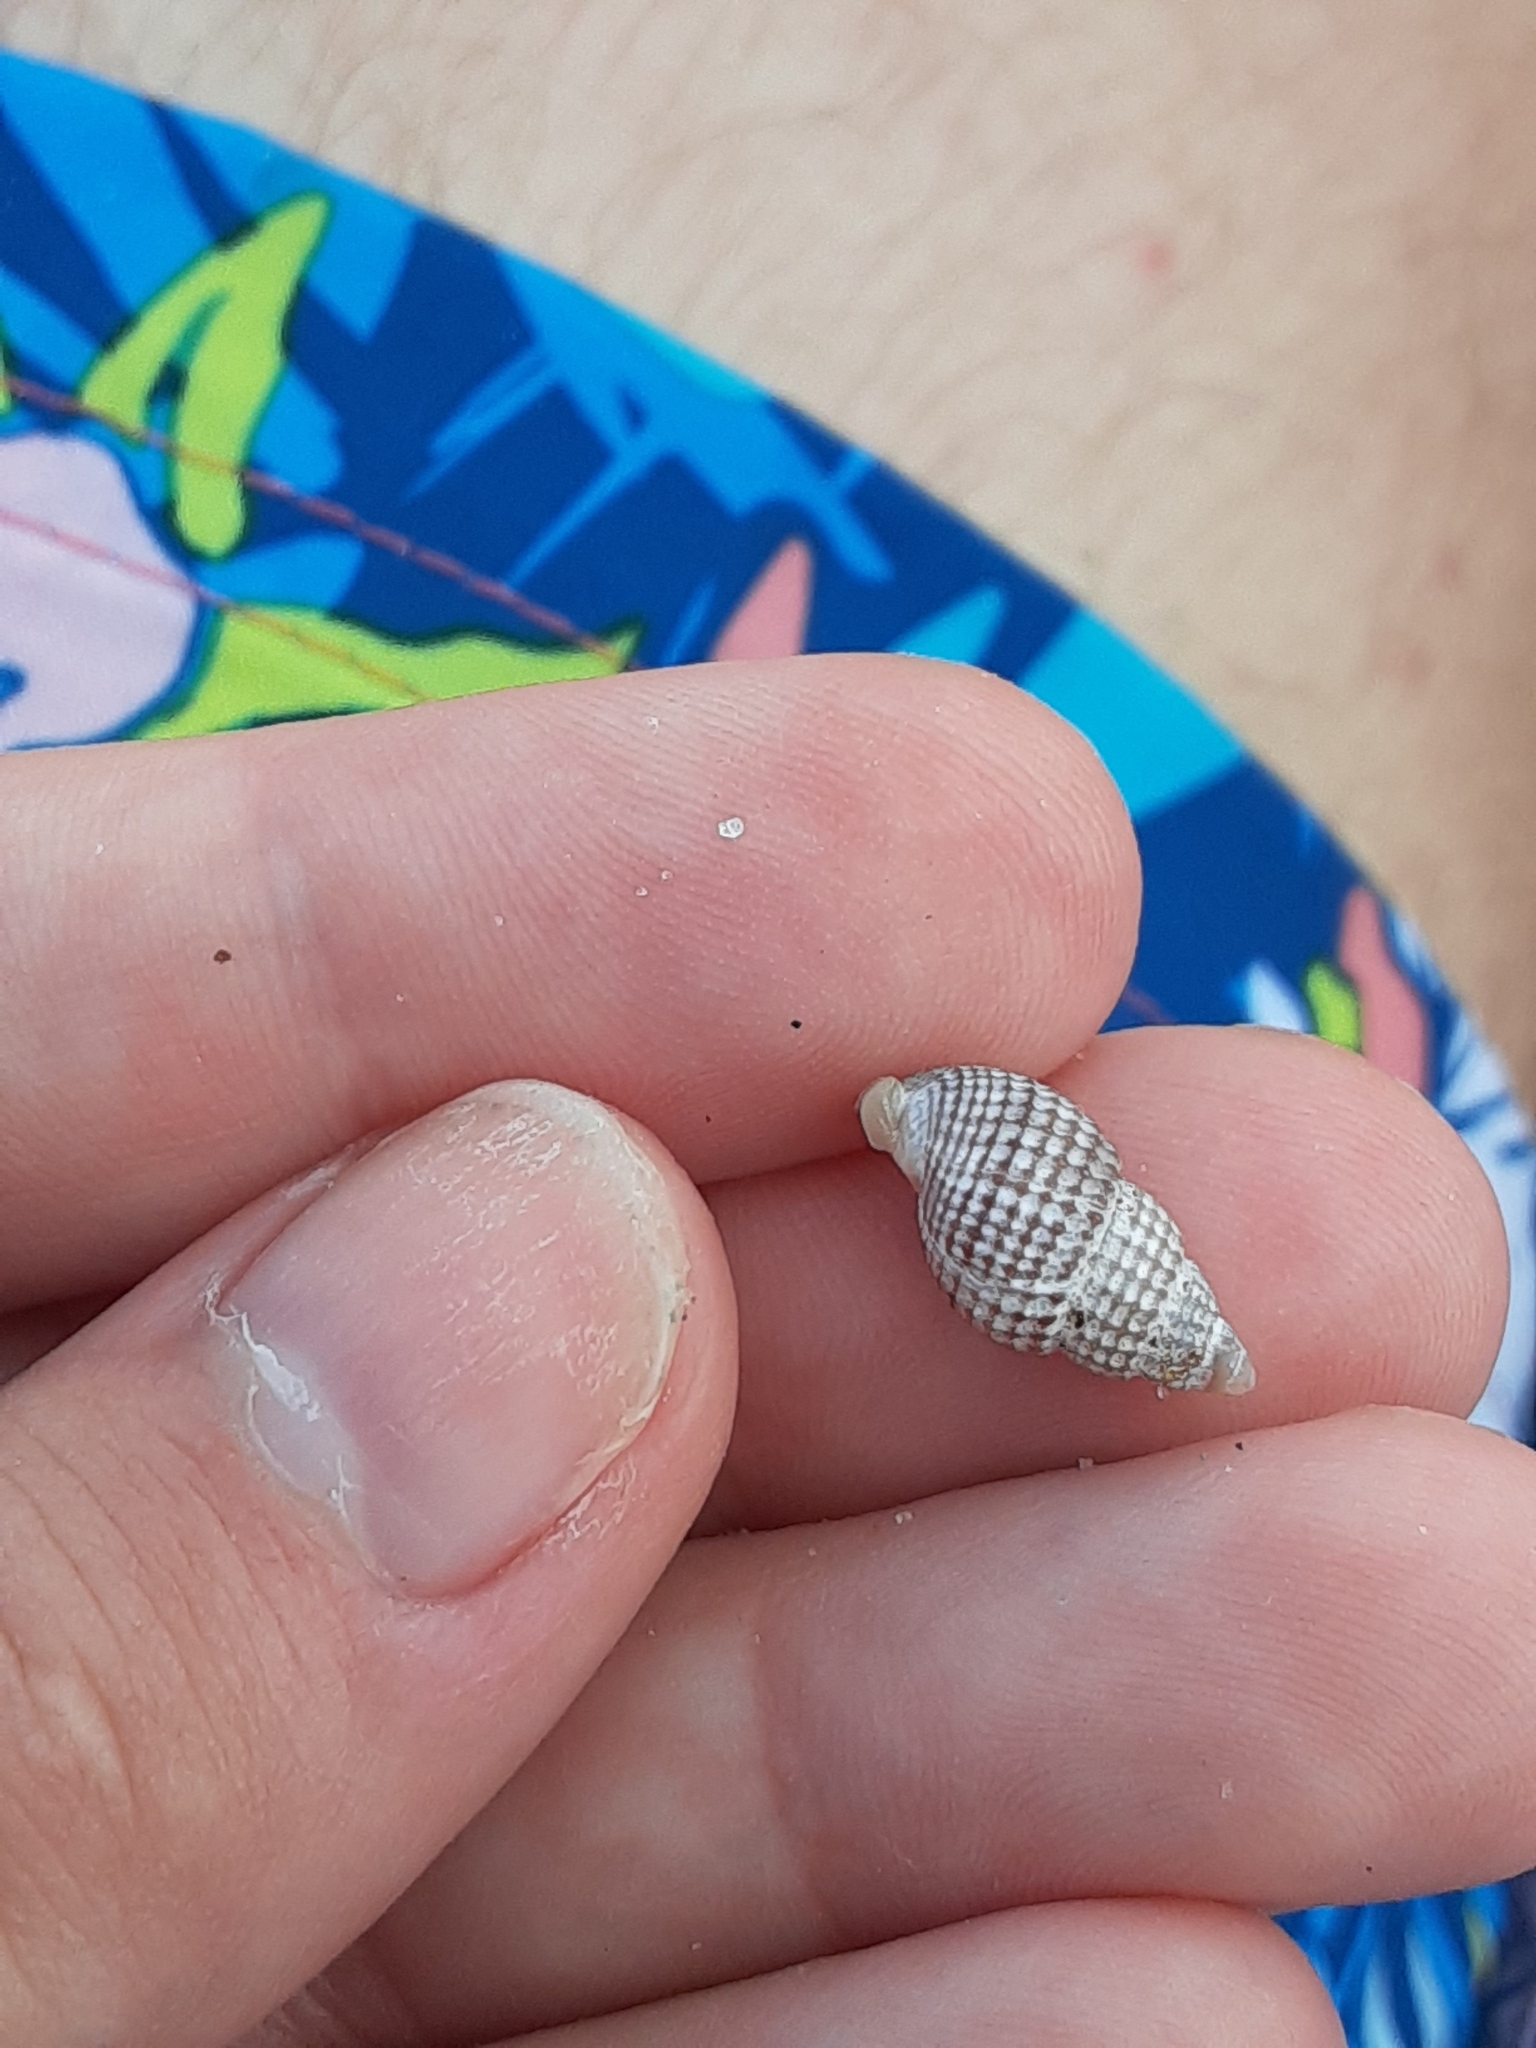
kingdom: Animalia
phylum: Mollusca
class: Gastropoda
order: Neogastropoda
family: Nassariidae
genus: Ilyanassa
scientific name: Ilyanassa trivittata
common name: Three-line mudsnail
